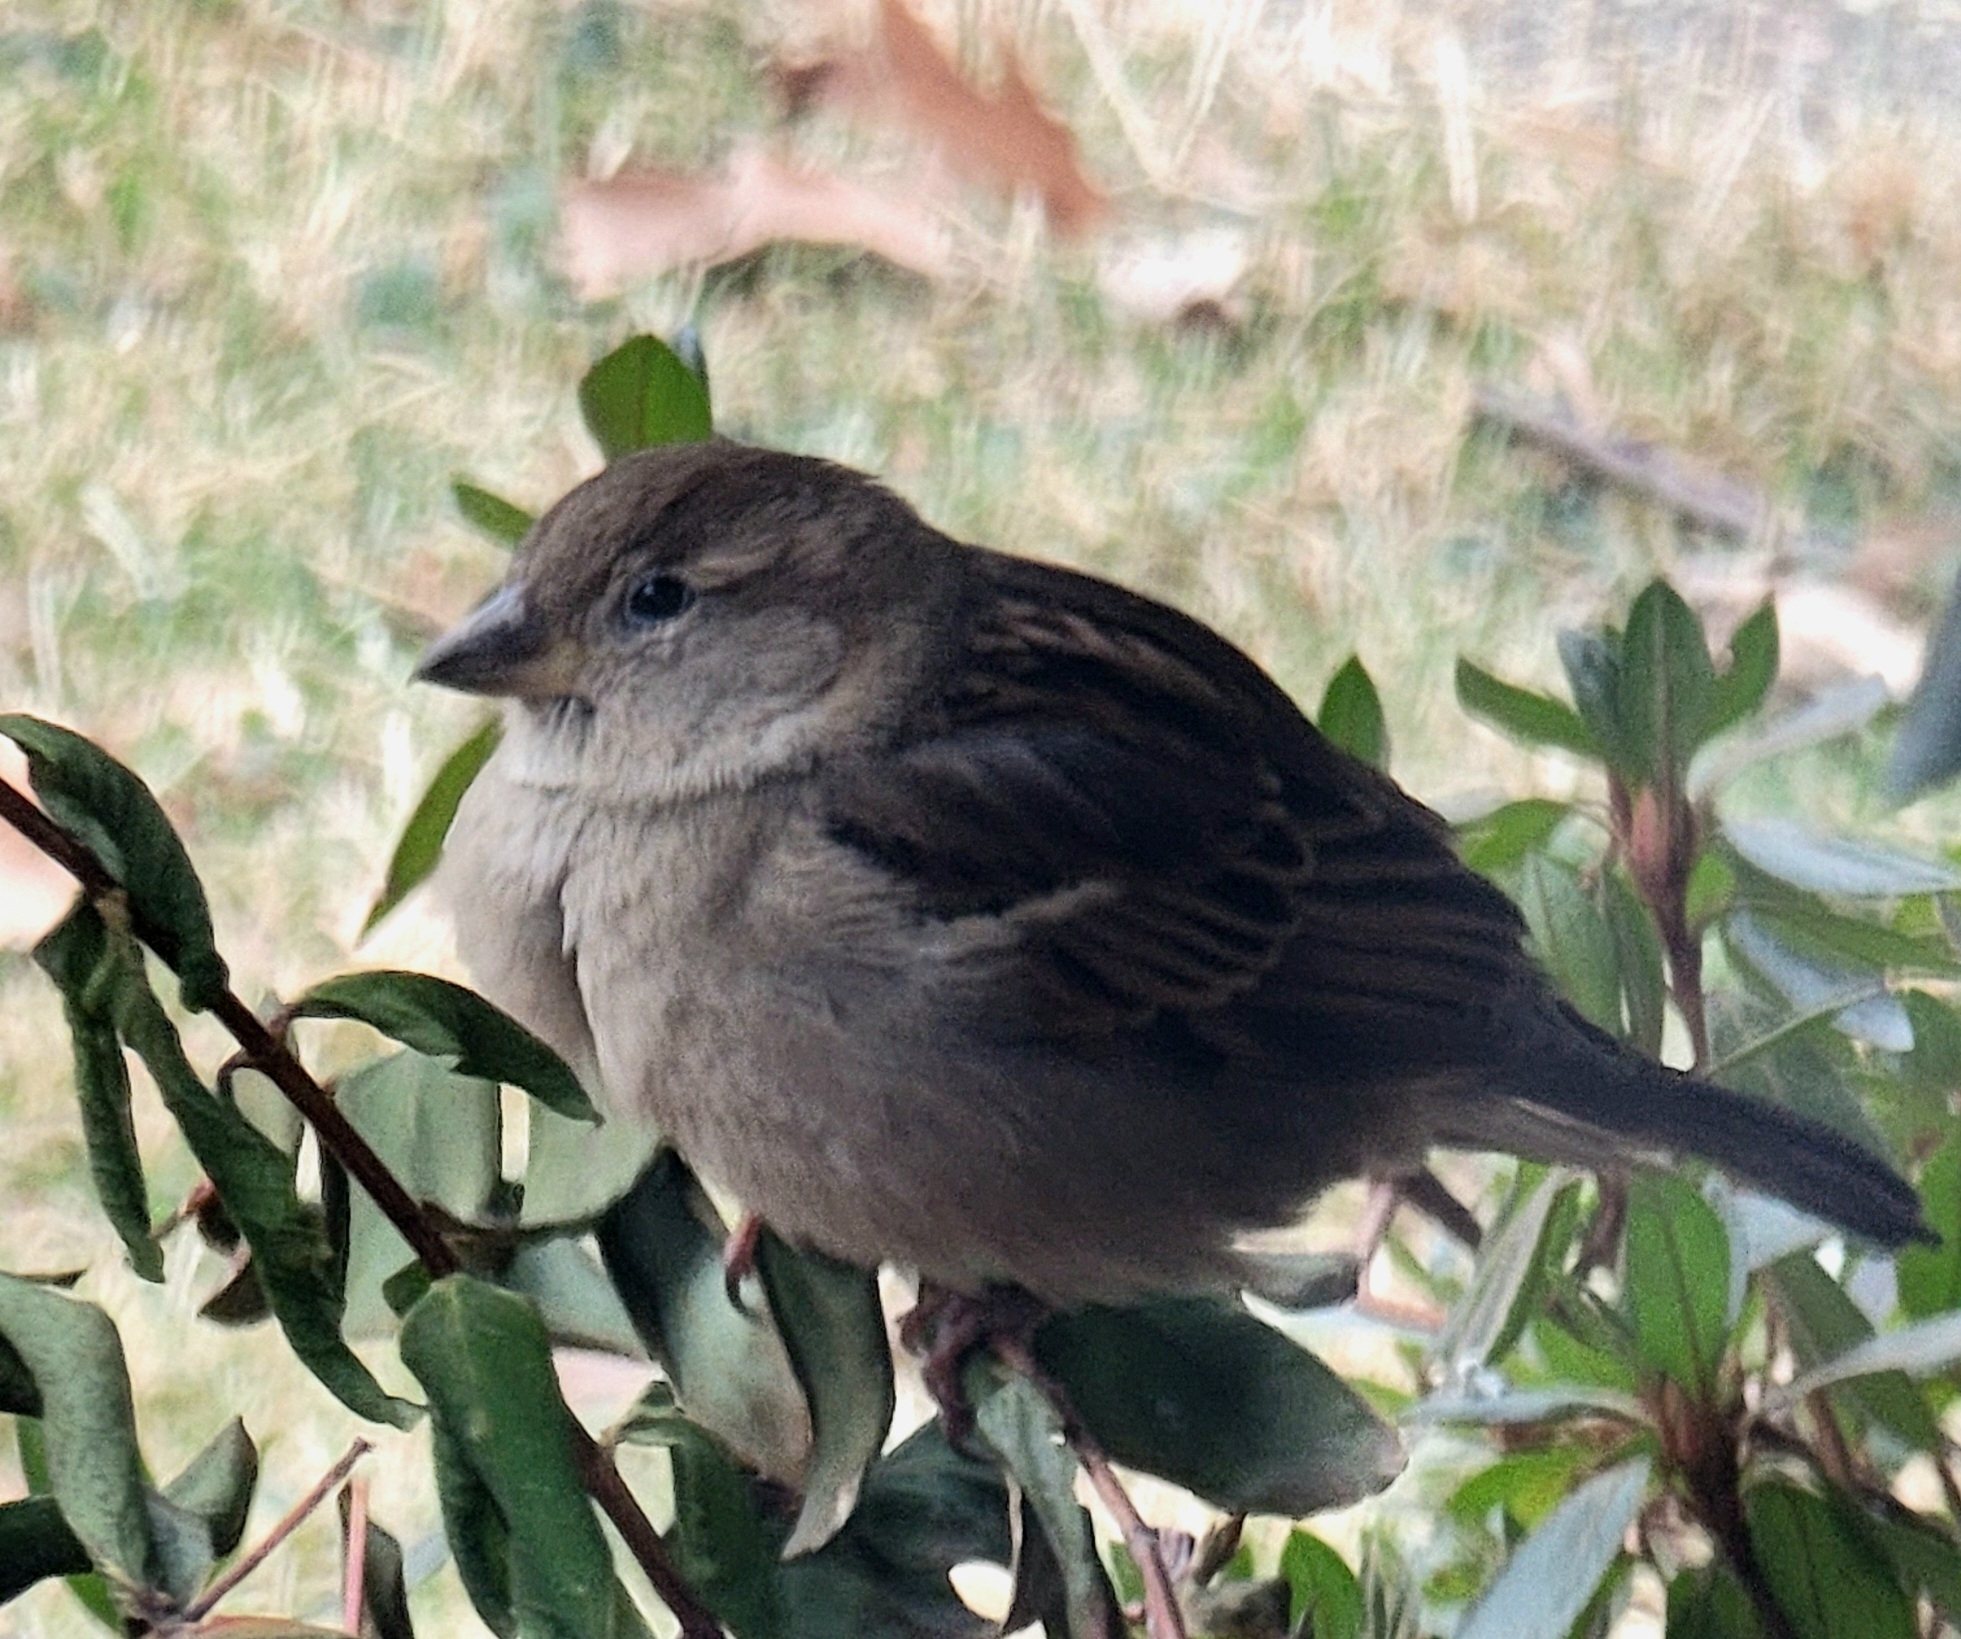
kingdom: Animalia
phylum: Chordata
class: Aves
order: Passeriformes
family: Passeridae
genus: Passer
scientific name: Passer domesticus
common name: House sparrow
